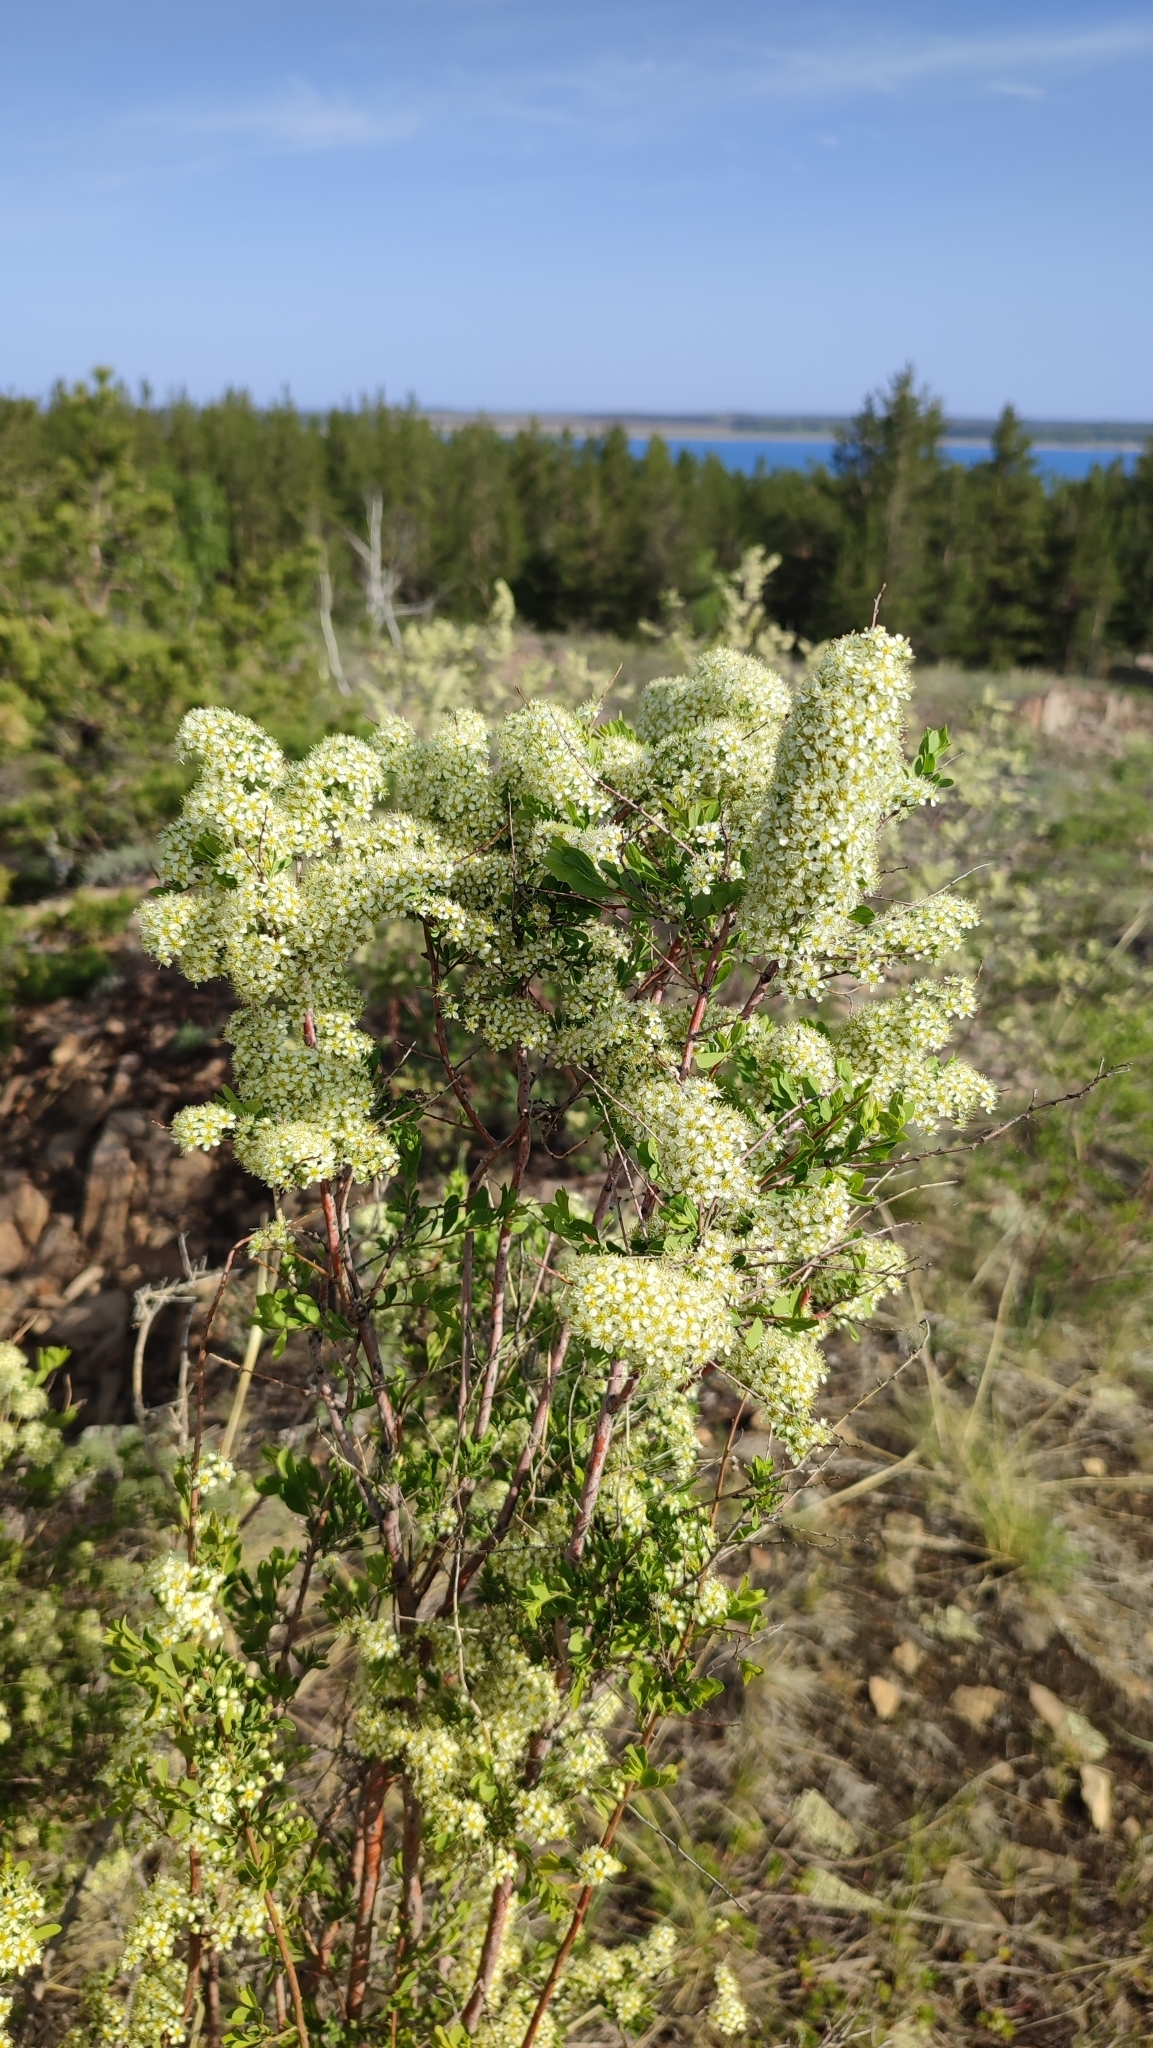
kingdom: Plantae
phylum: Tracheophyta
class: Magnoliopsida
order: Rosales
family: Rosaceae
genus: Spiraea
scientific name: Spiraea hypericifolia
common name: Iberian spirea
